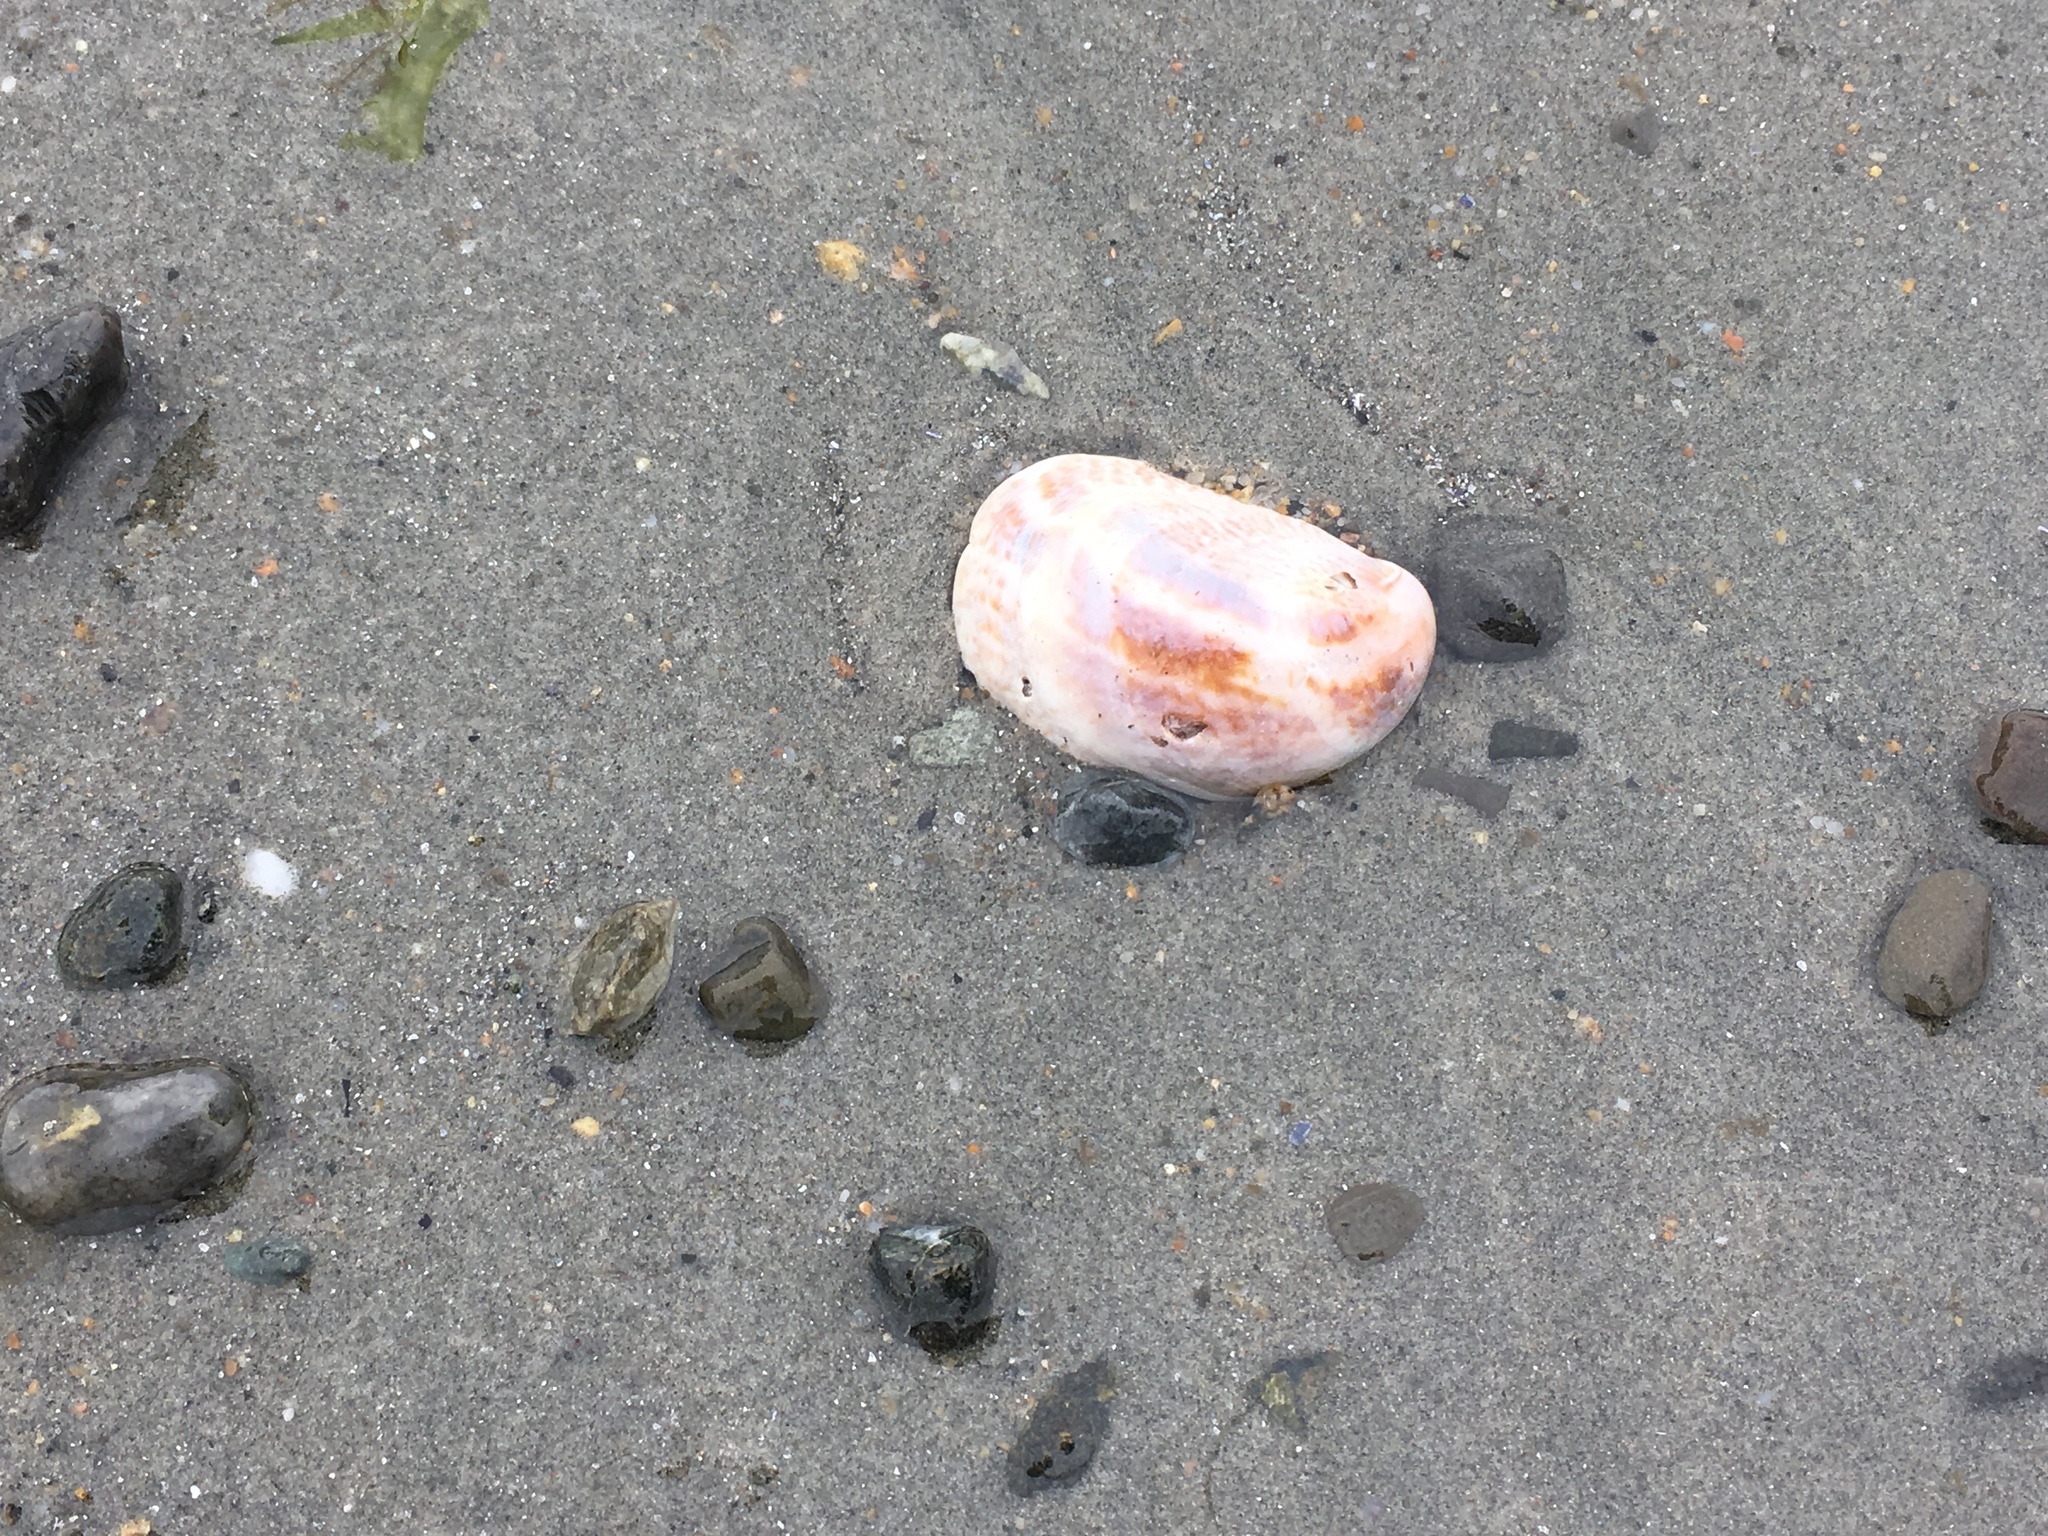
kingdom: Animalia
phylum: Mollusca
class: Gastropoda
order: Littorinimorpha
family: Calyptraeidae
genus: Crepidula
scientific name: Crepidula fornicata
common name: Slipper limpet
